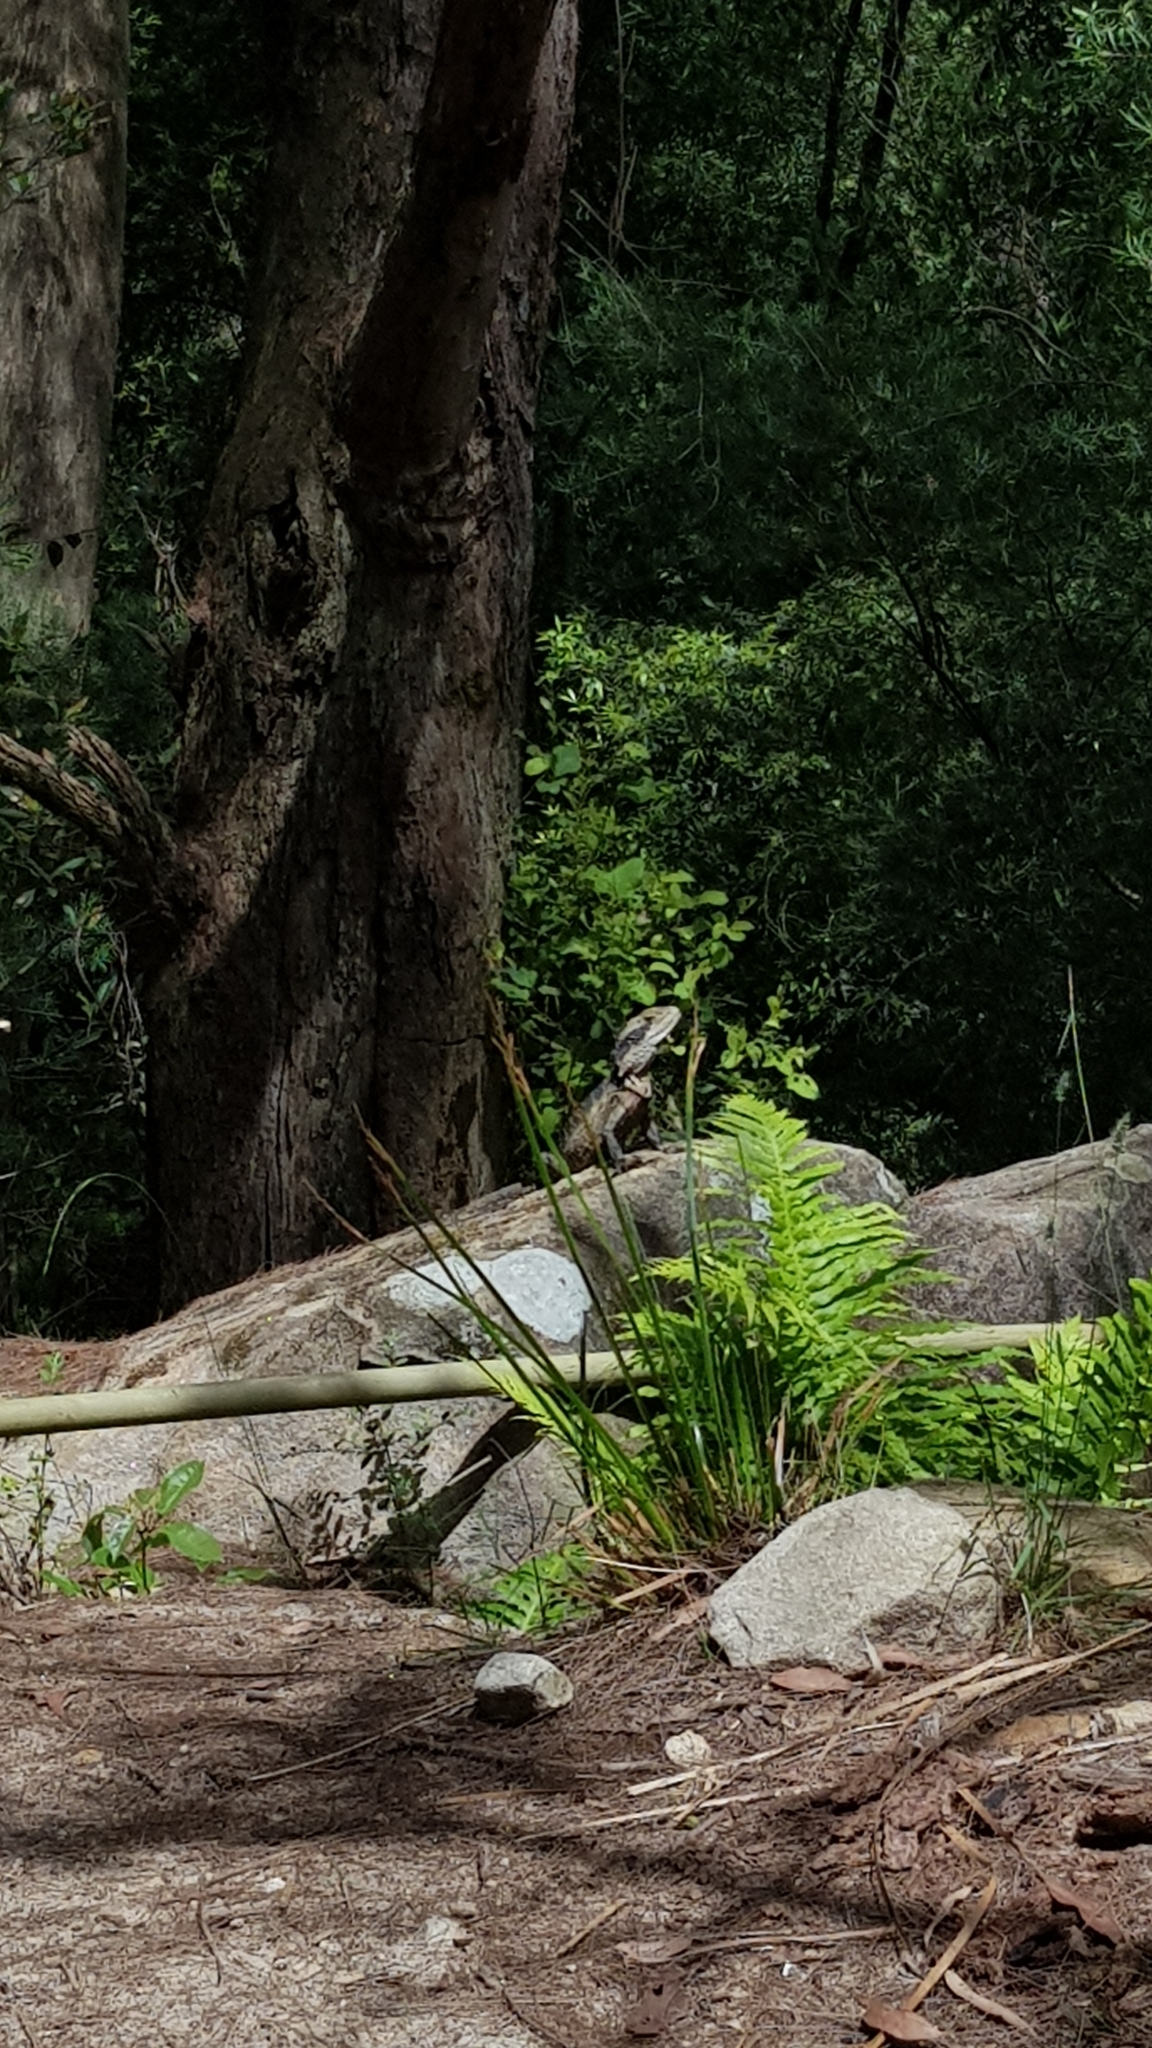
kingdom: Animalia
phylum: Chordata
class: Squamata
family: Agamidae
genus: Intellagama
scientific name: Intellagama lesueurii
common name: Eastern water dragon
